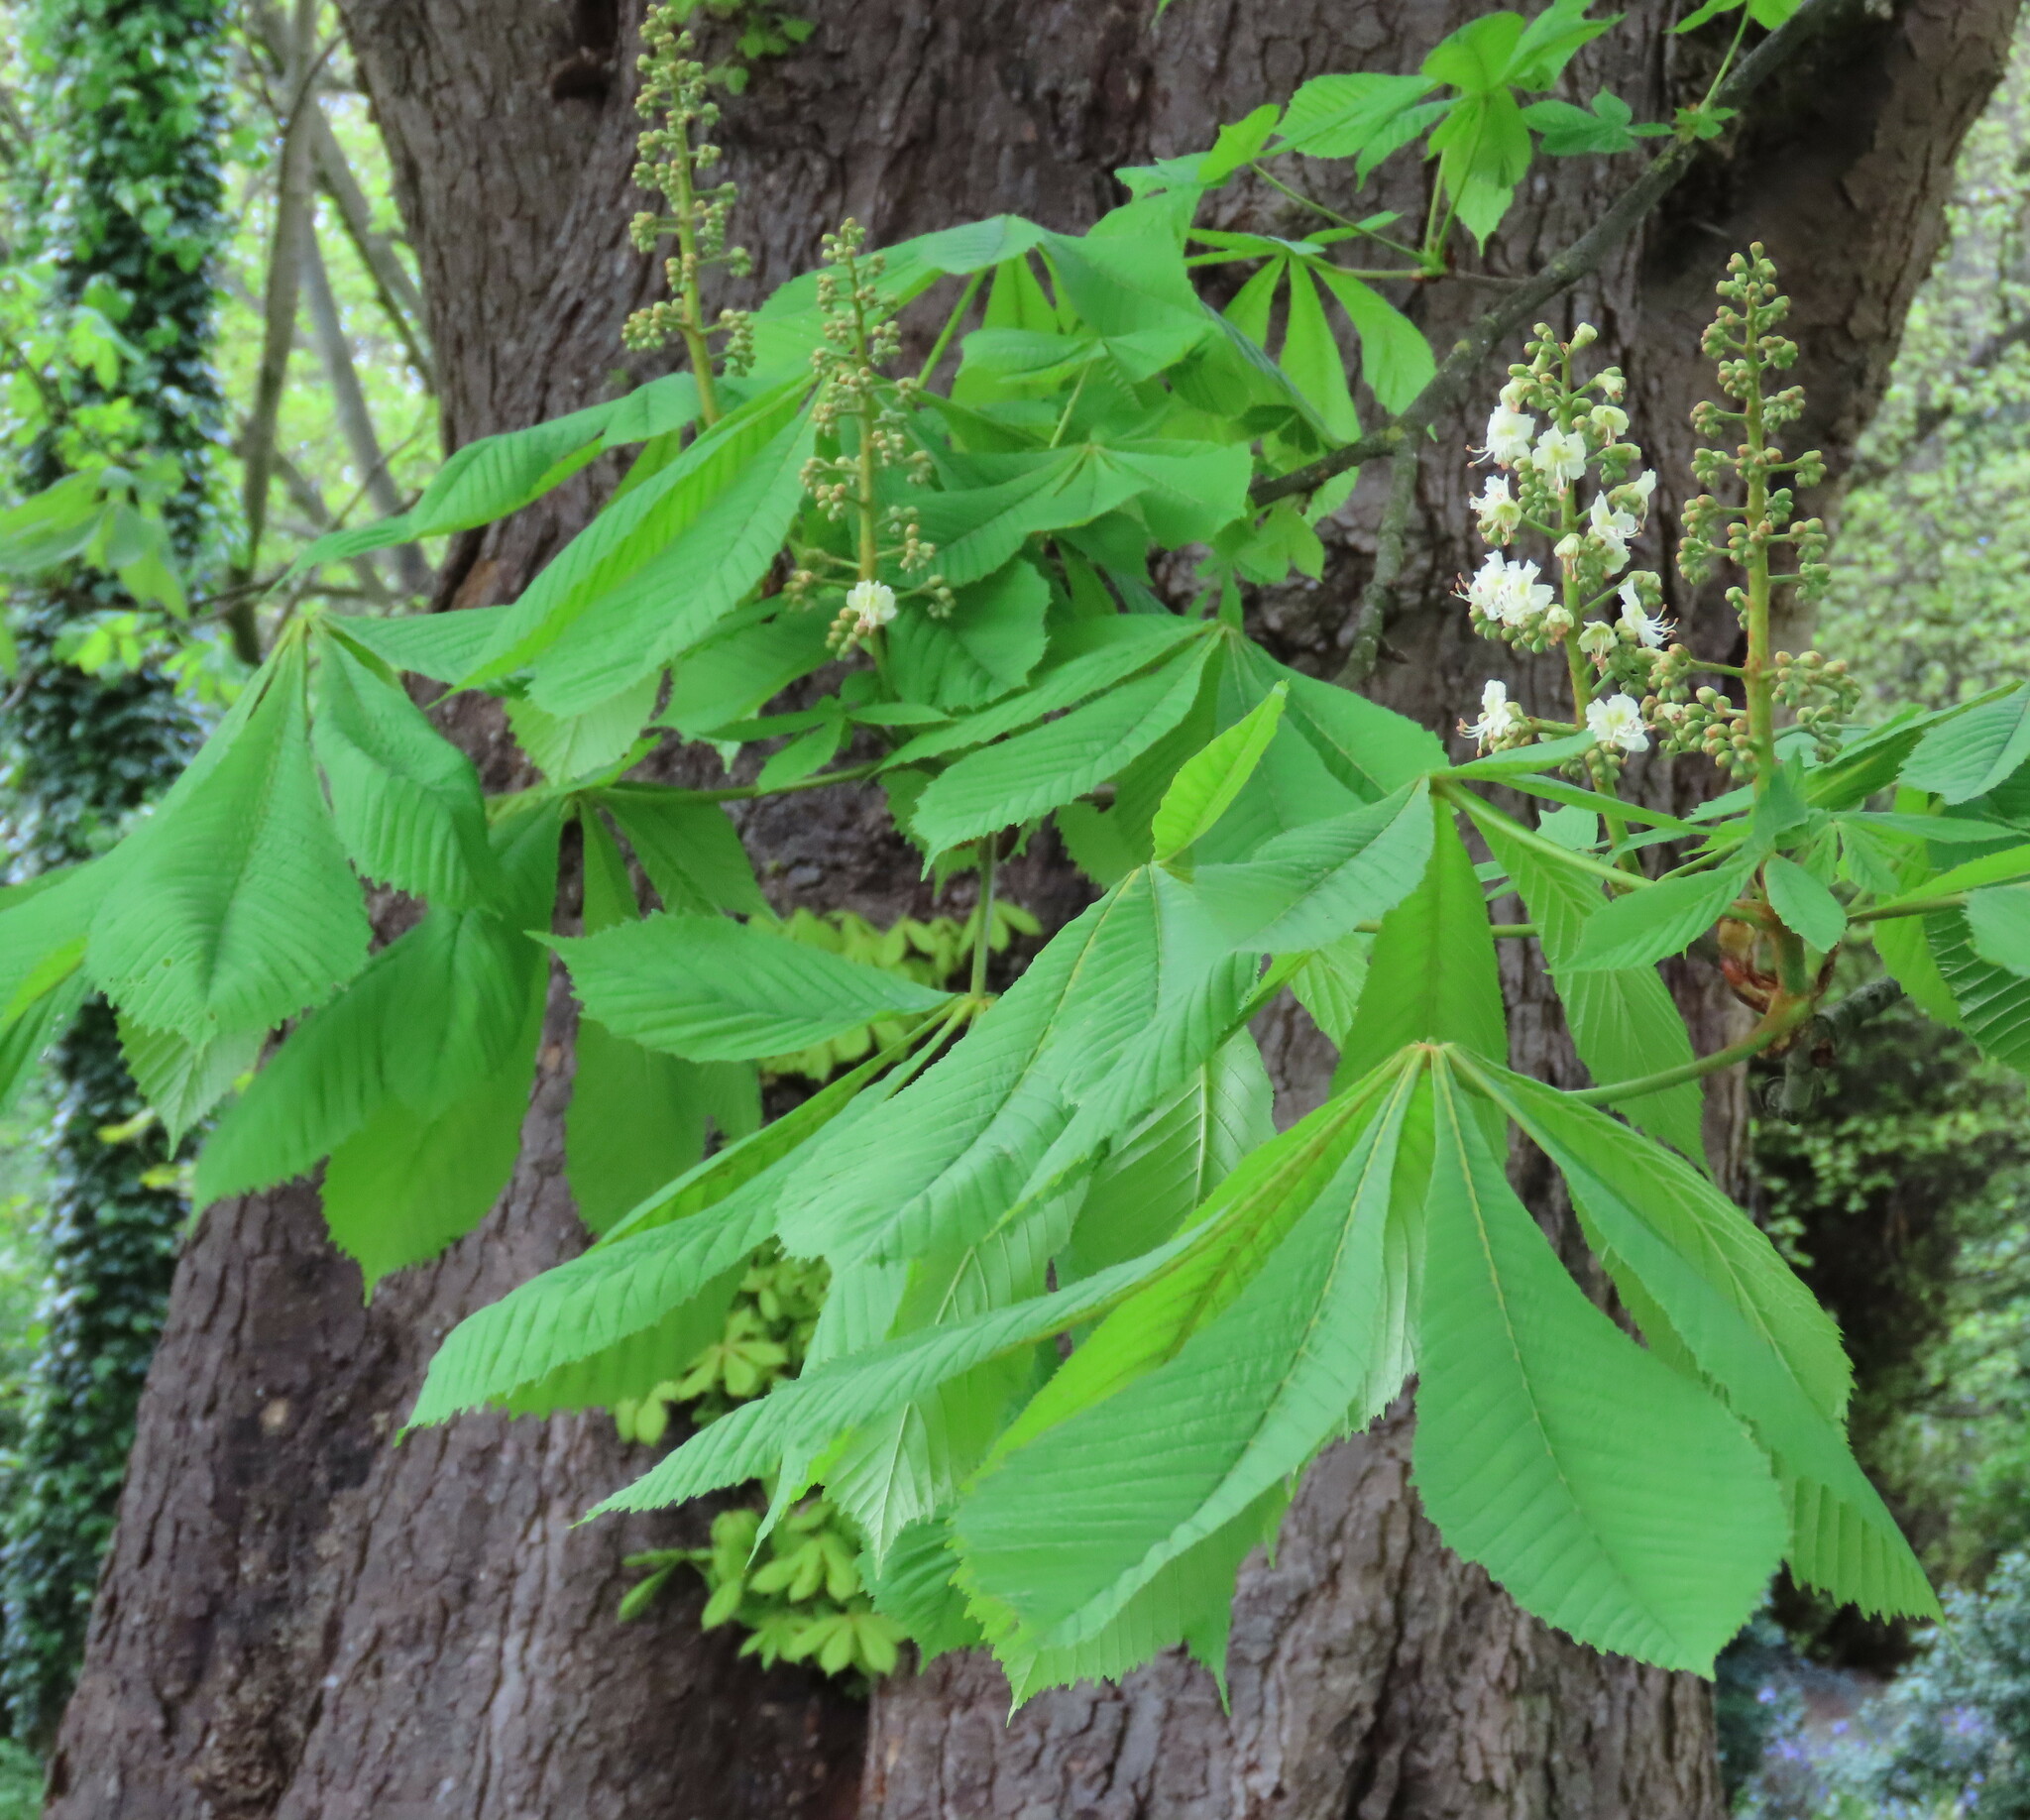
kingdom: Plantae
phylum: Tracheophyta
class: Magnoliopsida
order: Sapindales
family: Sapindaceae
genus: Aesculus
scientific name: Aesculus hippocastanum
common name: Horse-chestnut
